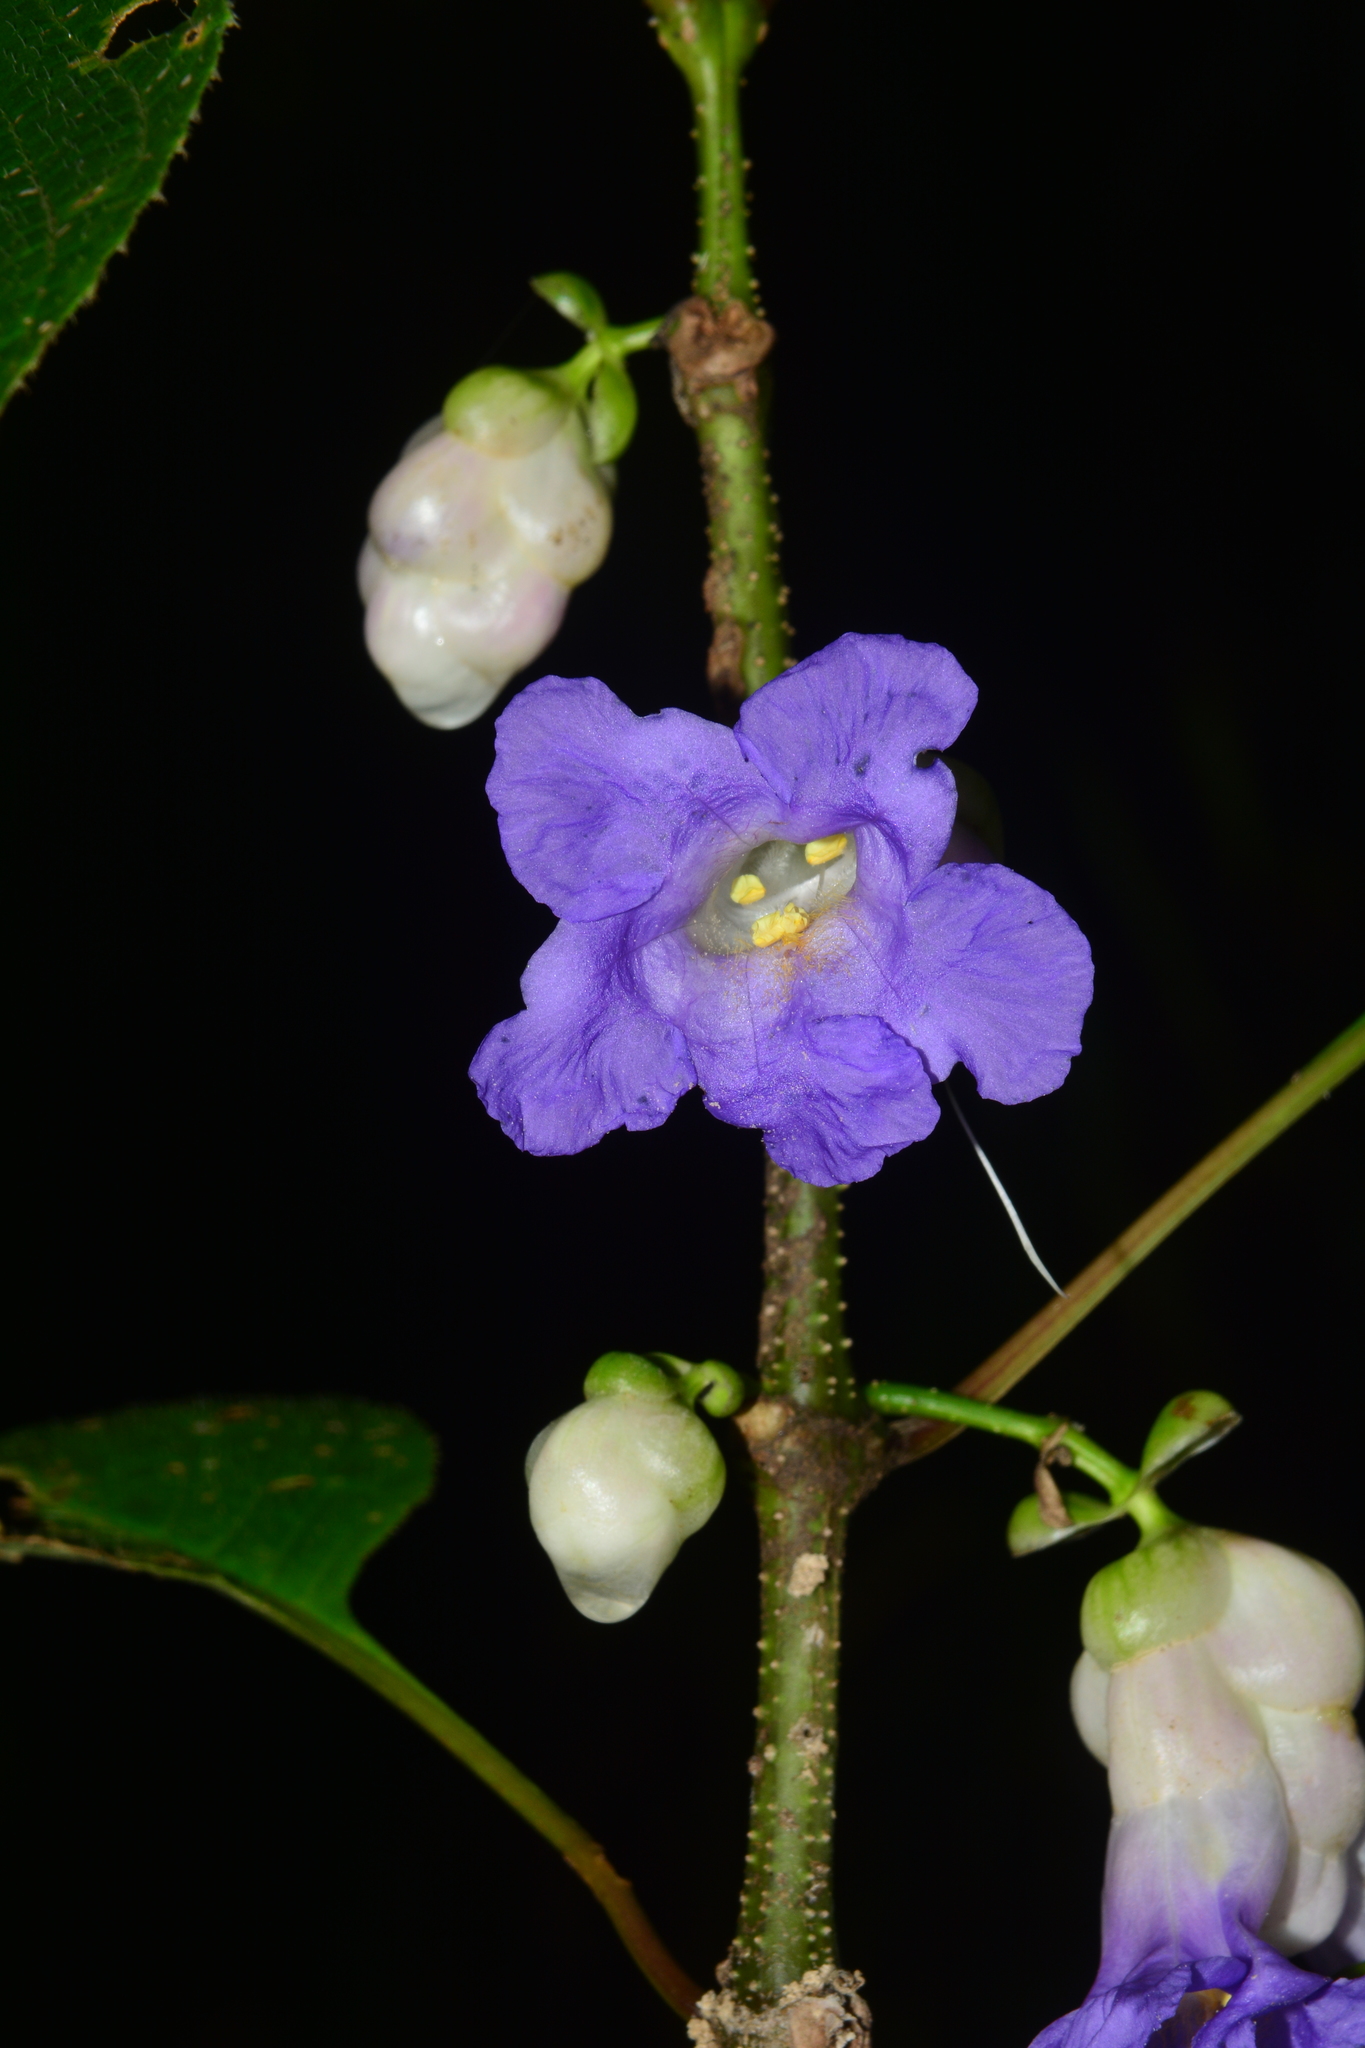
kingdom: Plantae
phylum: Tracheophyta
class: Magnoliopsida
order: Lamiales
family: Acanthaceae
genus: Strobilanthes
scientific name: Strobilanthes heyneana
